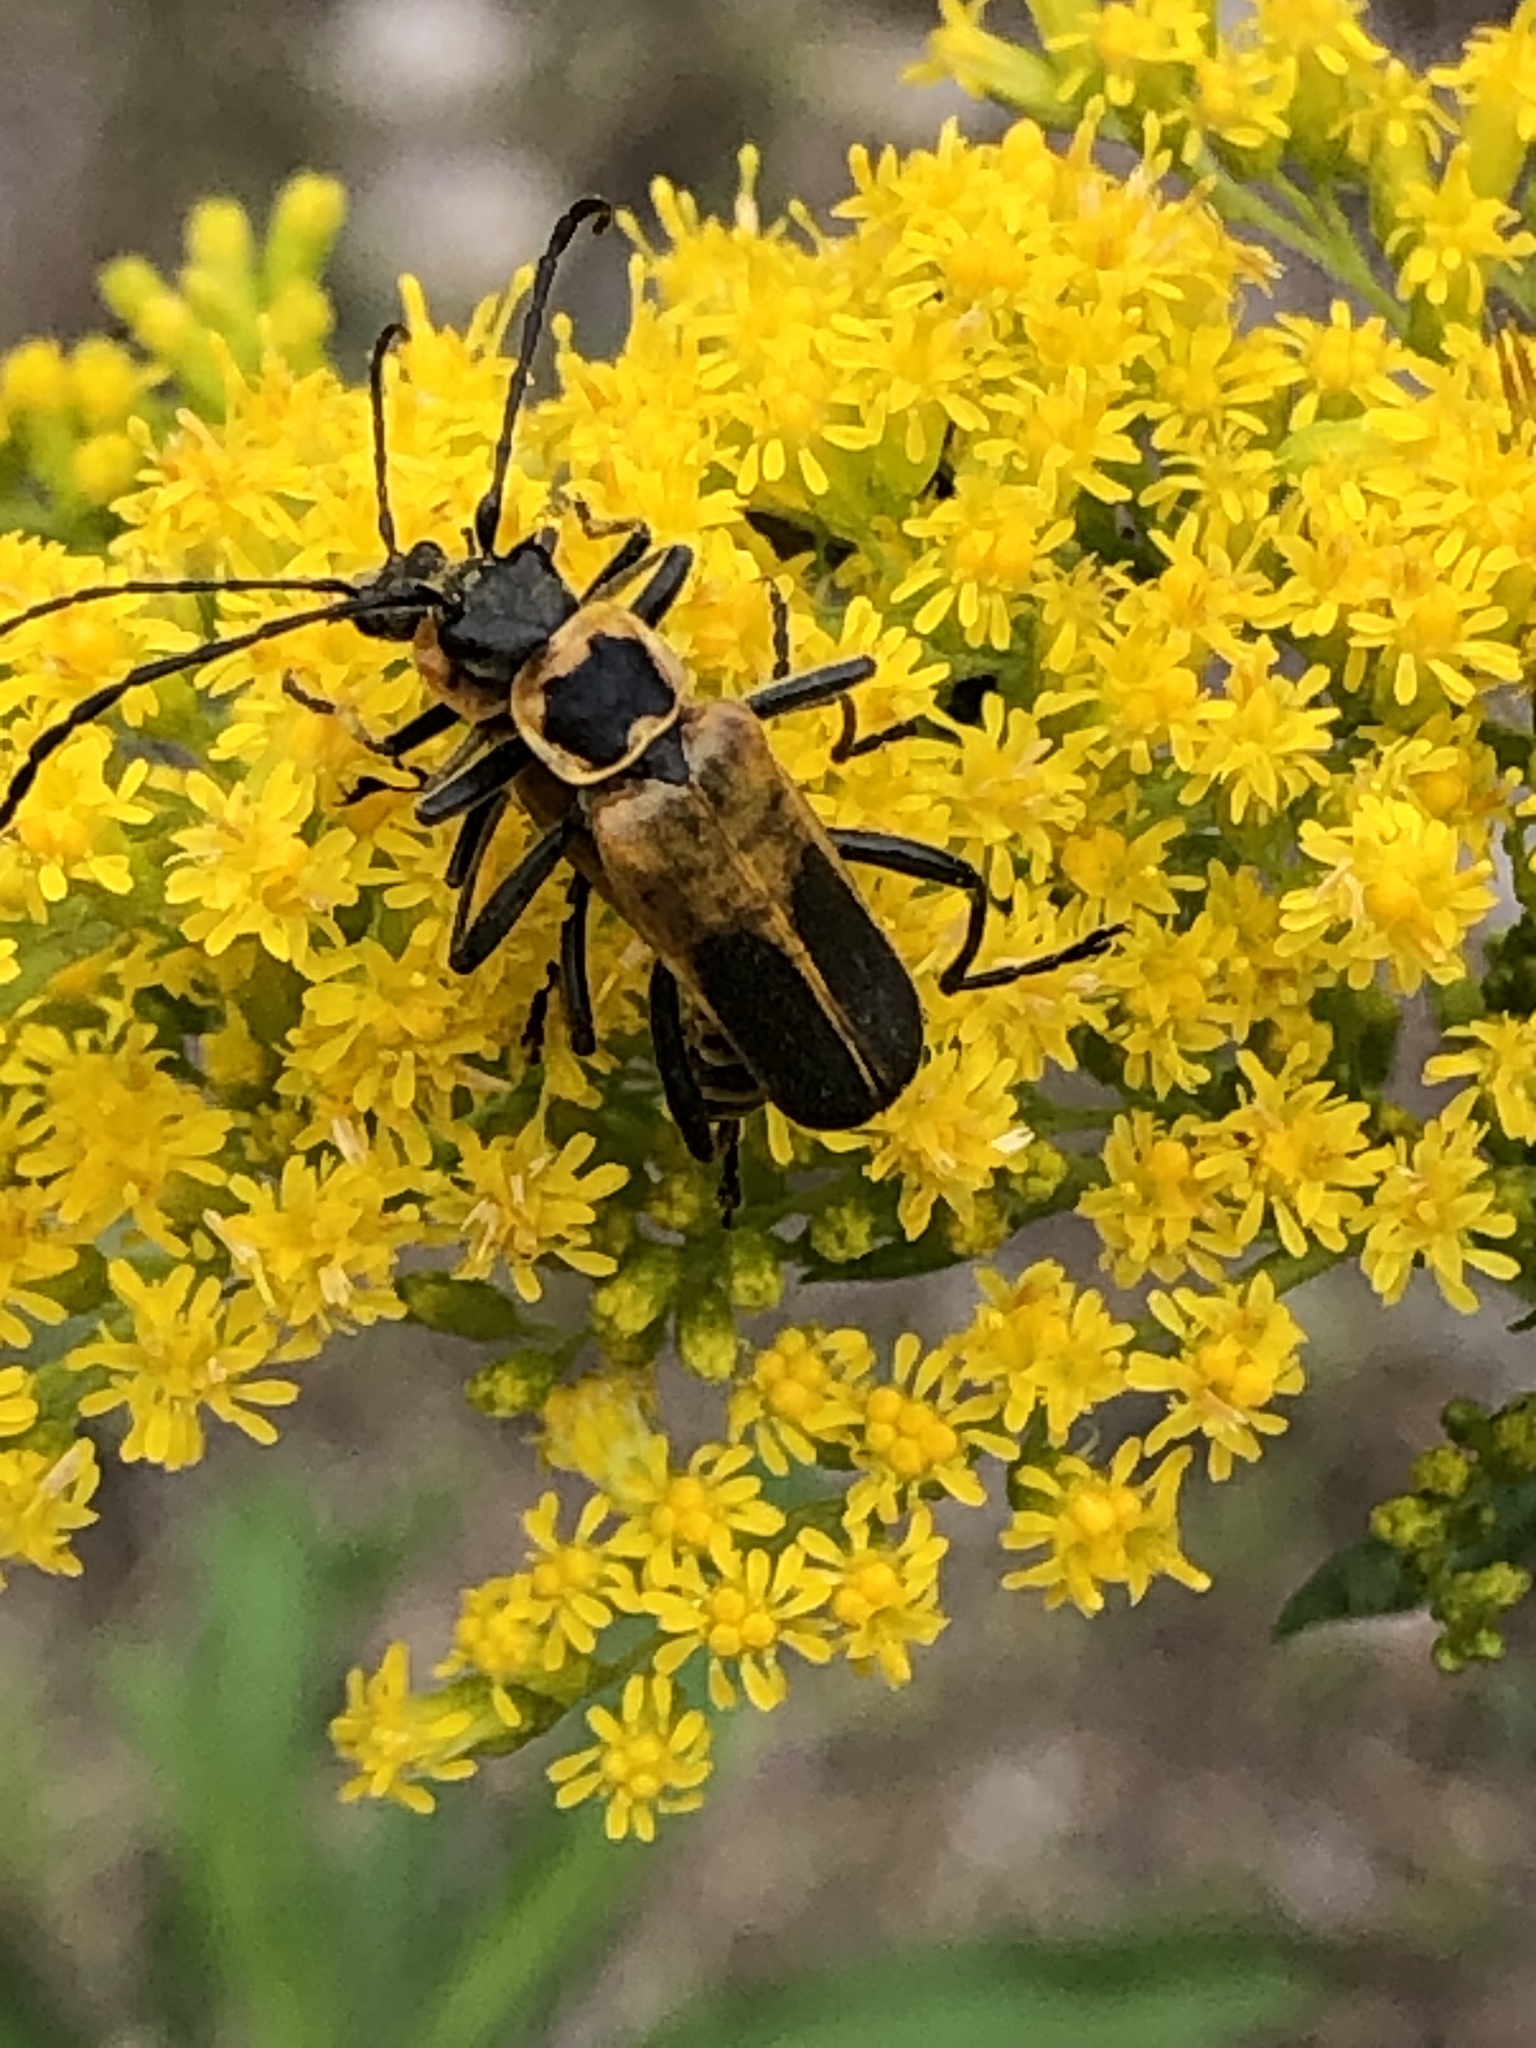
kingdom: Animalia
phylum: Arthropoda
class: Insecta
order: Coleoptera
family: Cantharidae
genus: Chauliognathus
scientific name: Chauliognathus pensylvanicus
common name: Goldenrod soldier beetle
